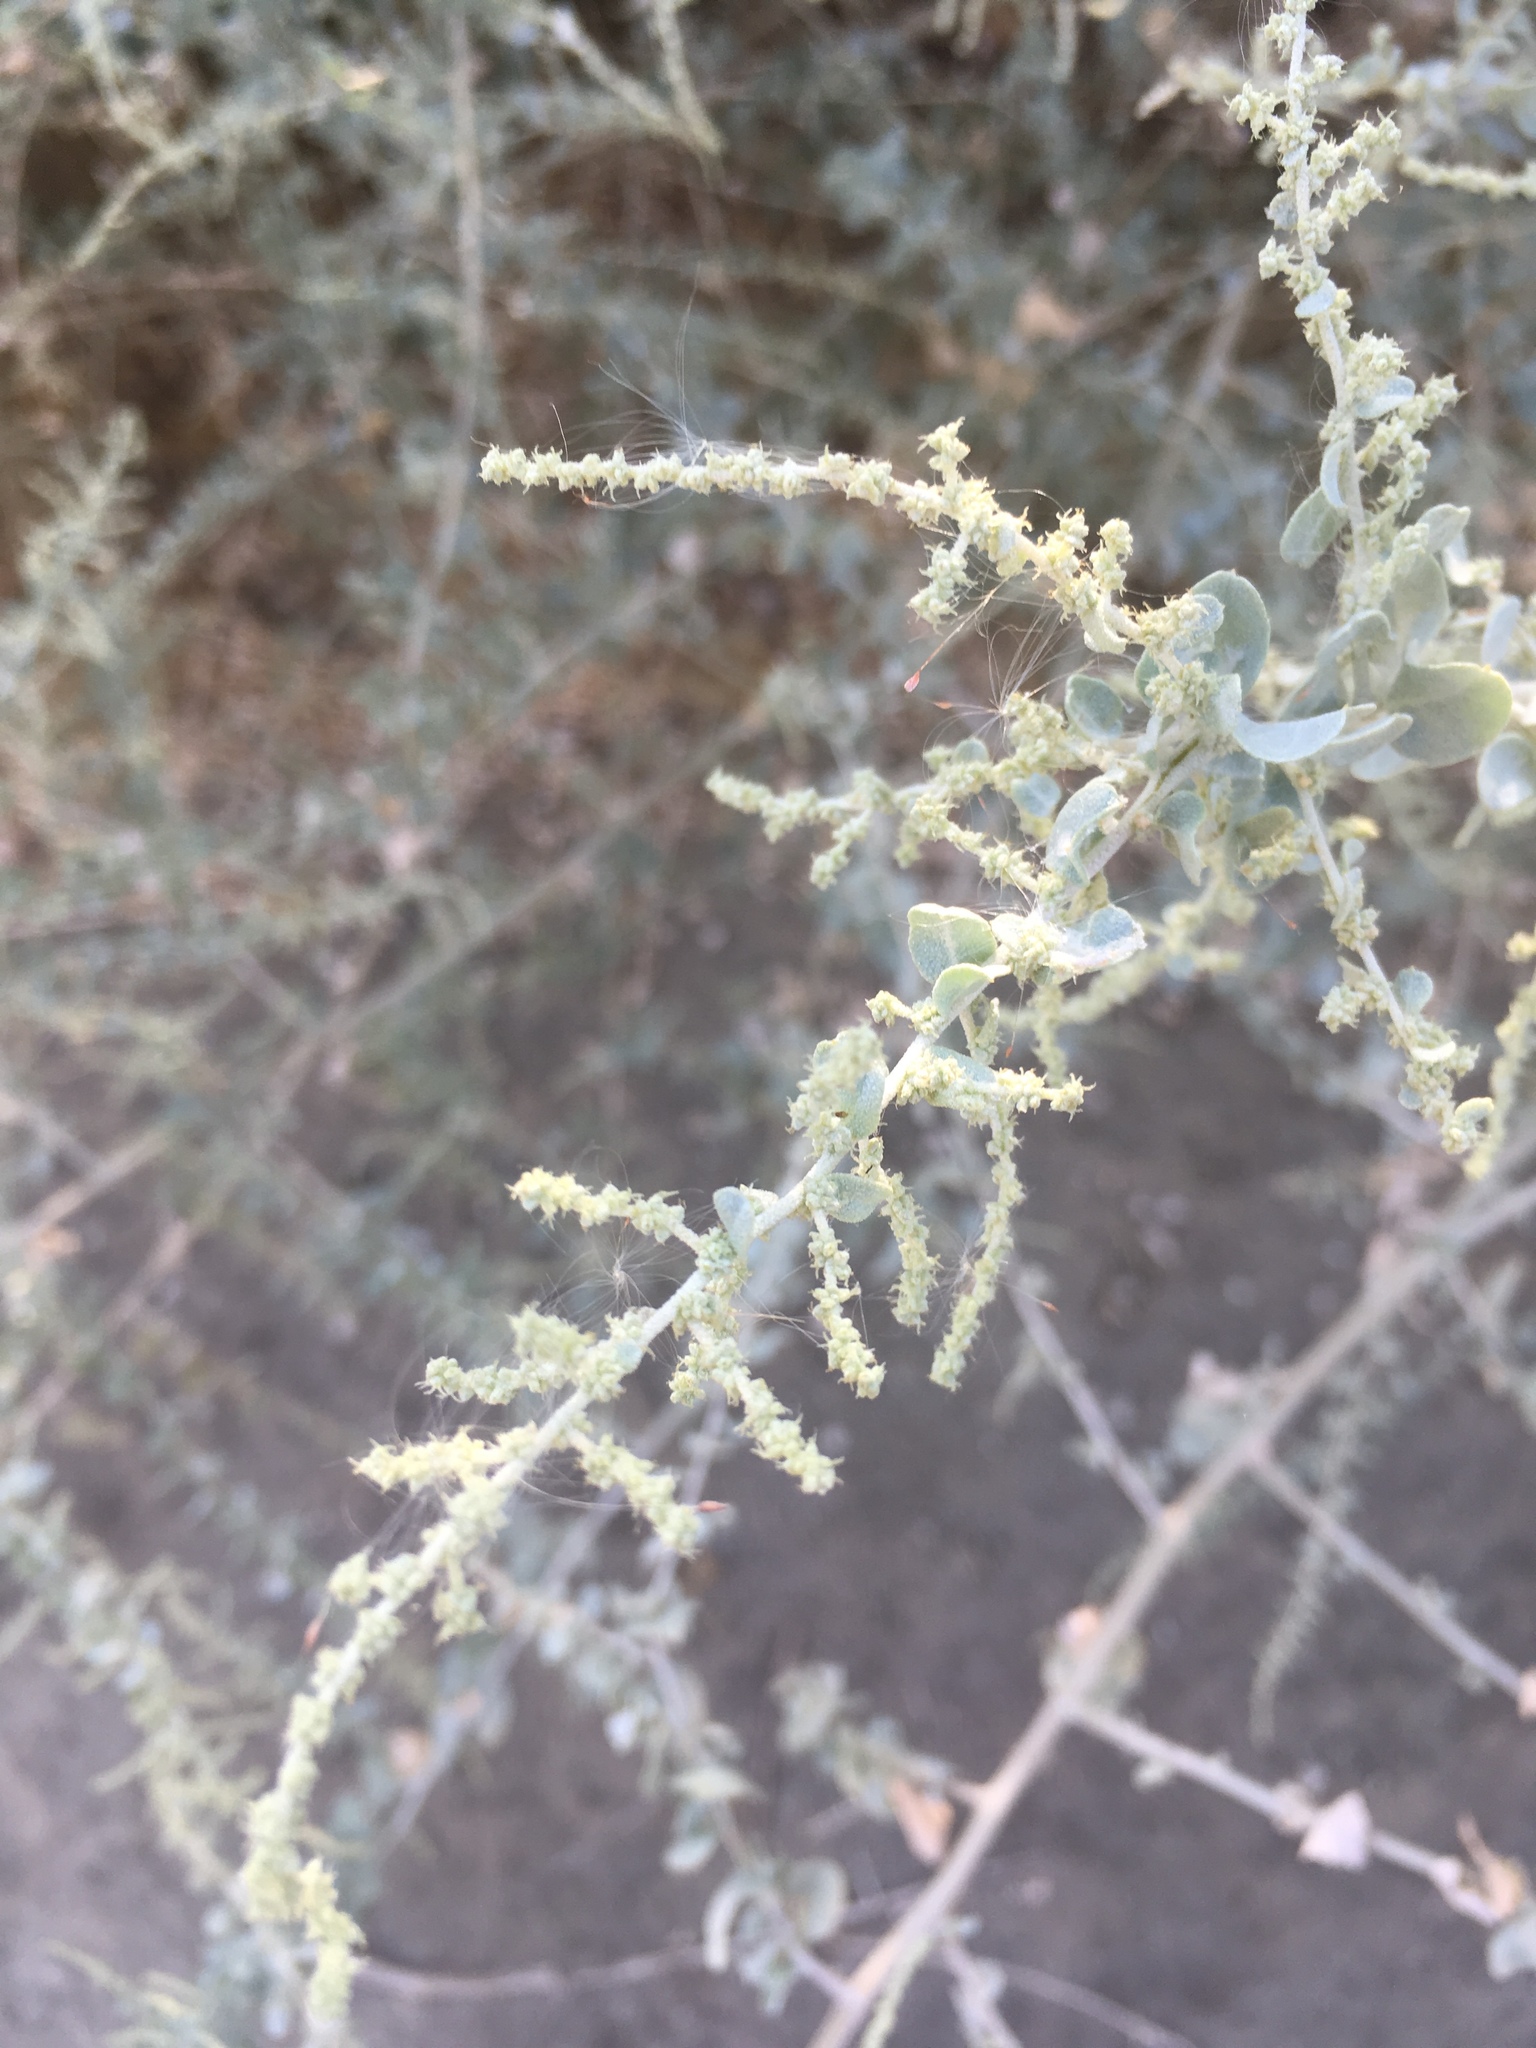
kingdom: Plantae
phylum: Tracheophyta
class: Magnoliopsida
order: Caryophyllales
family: Amaranthaceae
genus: Atriplex
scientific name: Atriplex lentiformis
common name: Big saltbush
